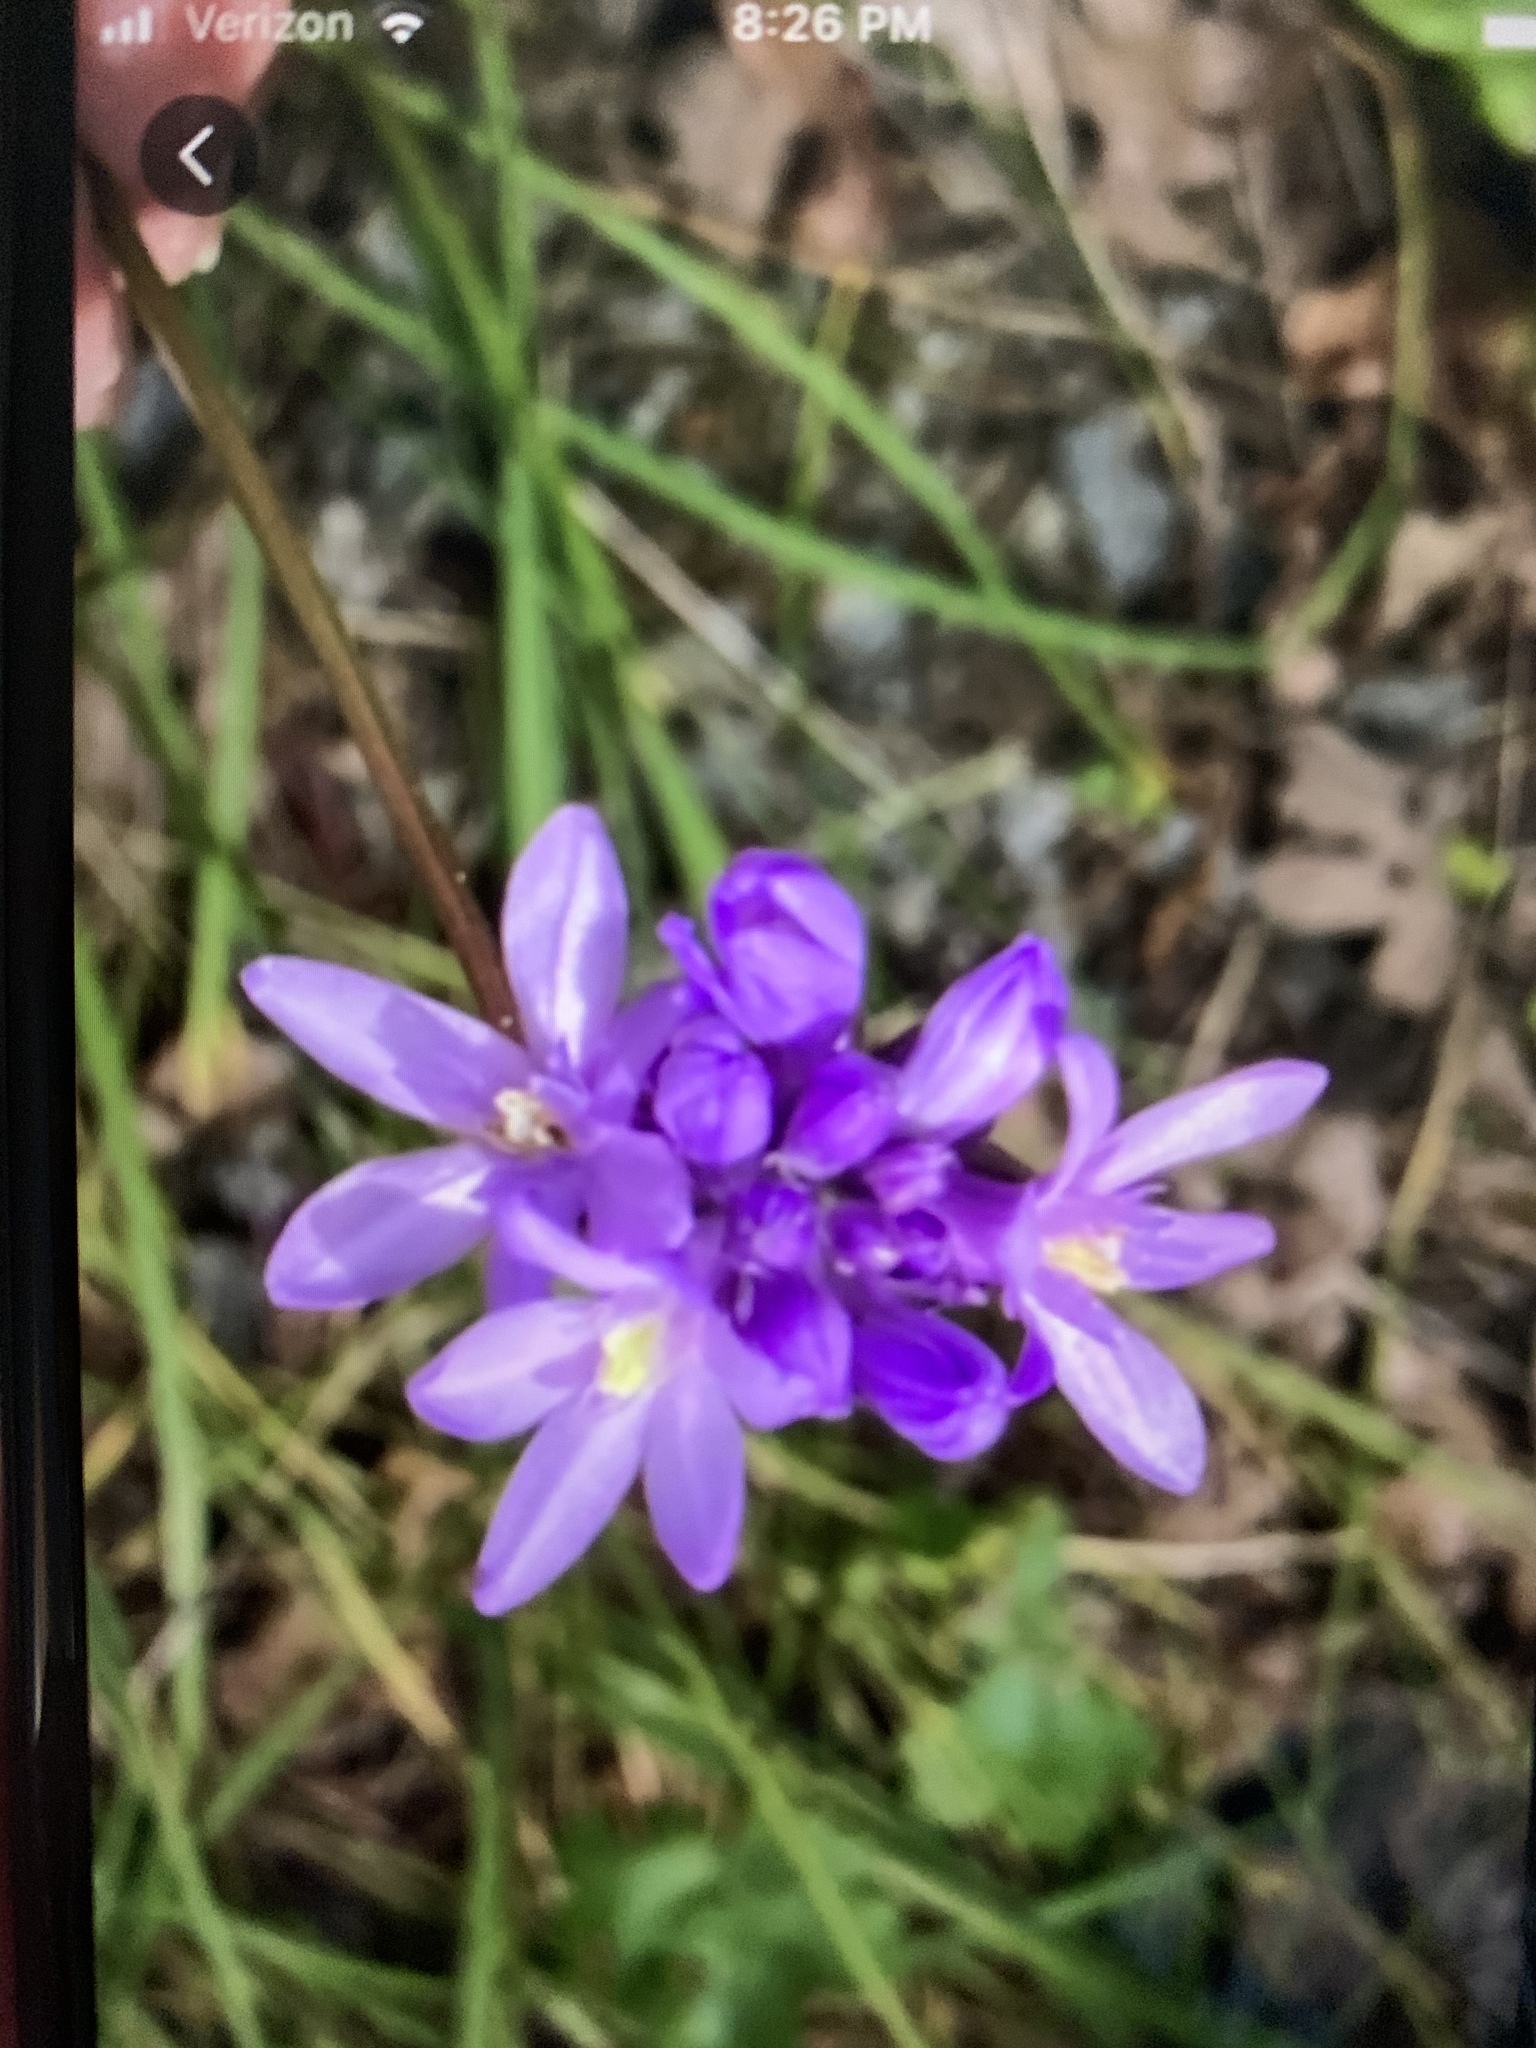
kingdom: Plantae
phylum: Tracheophyta
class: Liliopsida
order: Asparagales
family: Asparagaceae
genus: Dichelostemma
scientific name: Dichelostemma congestum
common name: Fork-tooth ookow
